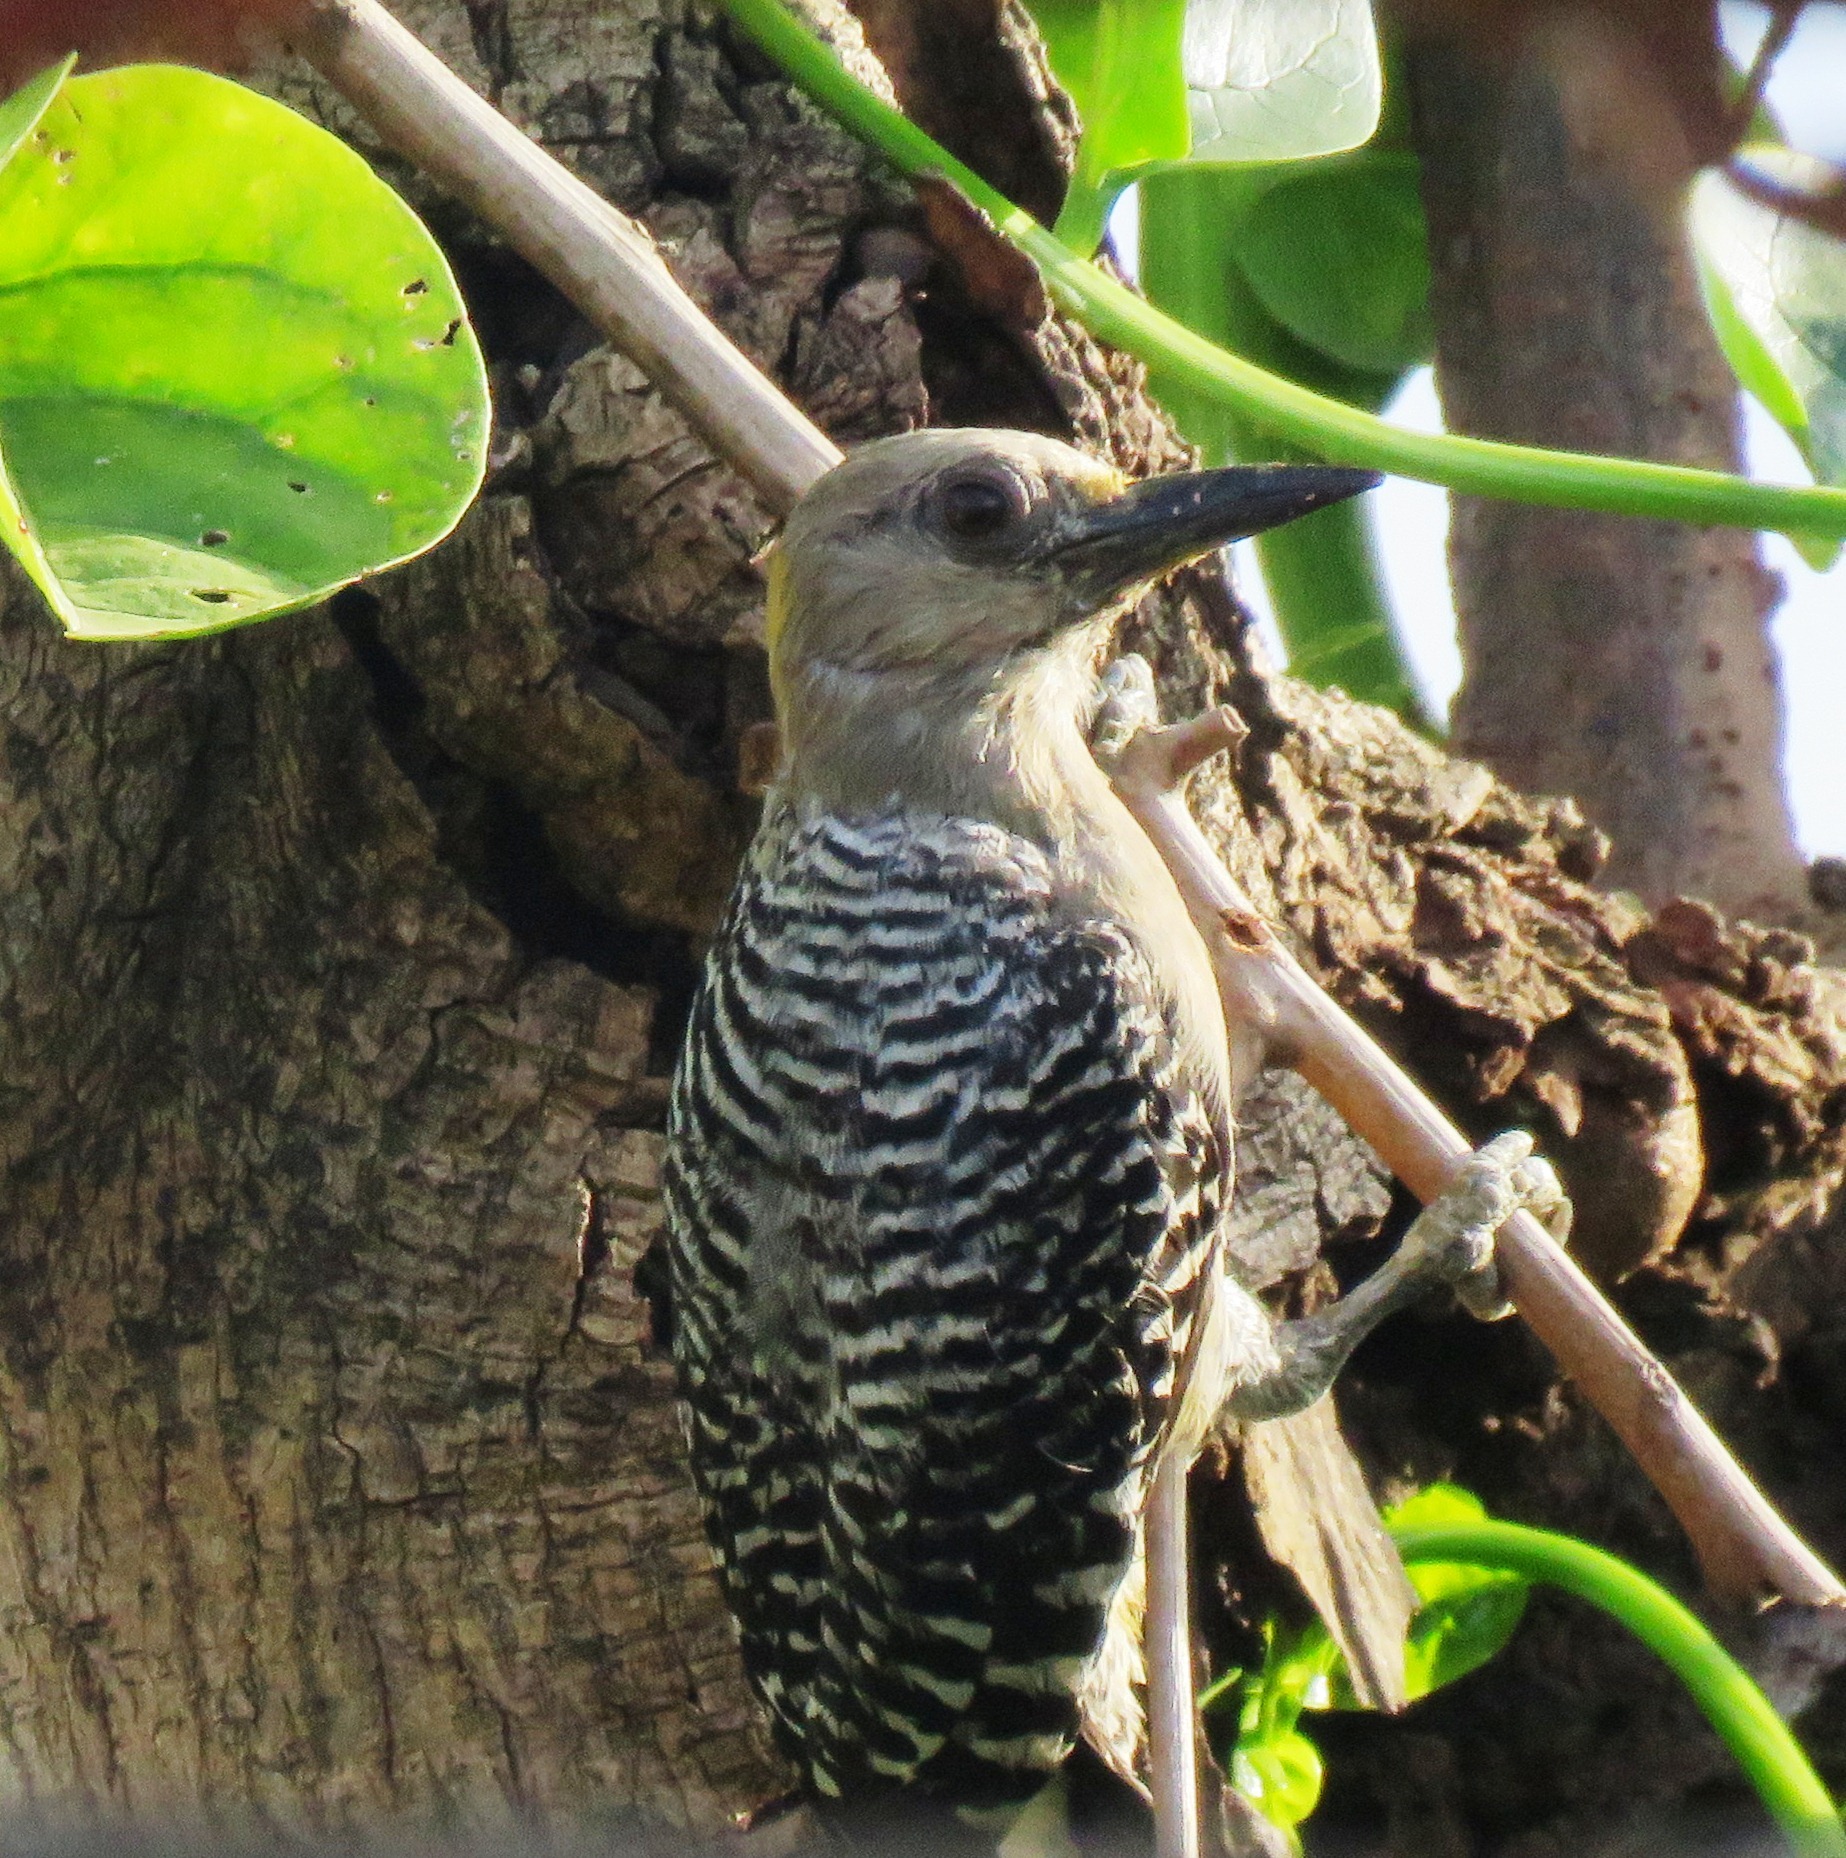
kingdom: Animalia
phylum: Chordata
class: Aves
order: Piciformes
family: Picidae
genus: Melanerpes
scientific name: Melanerpes hoffmannii
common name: Hoffmann's woodpecker
